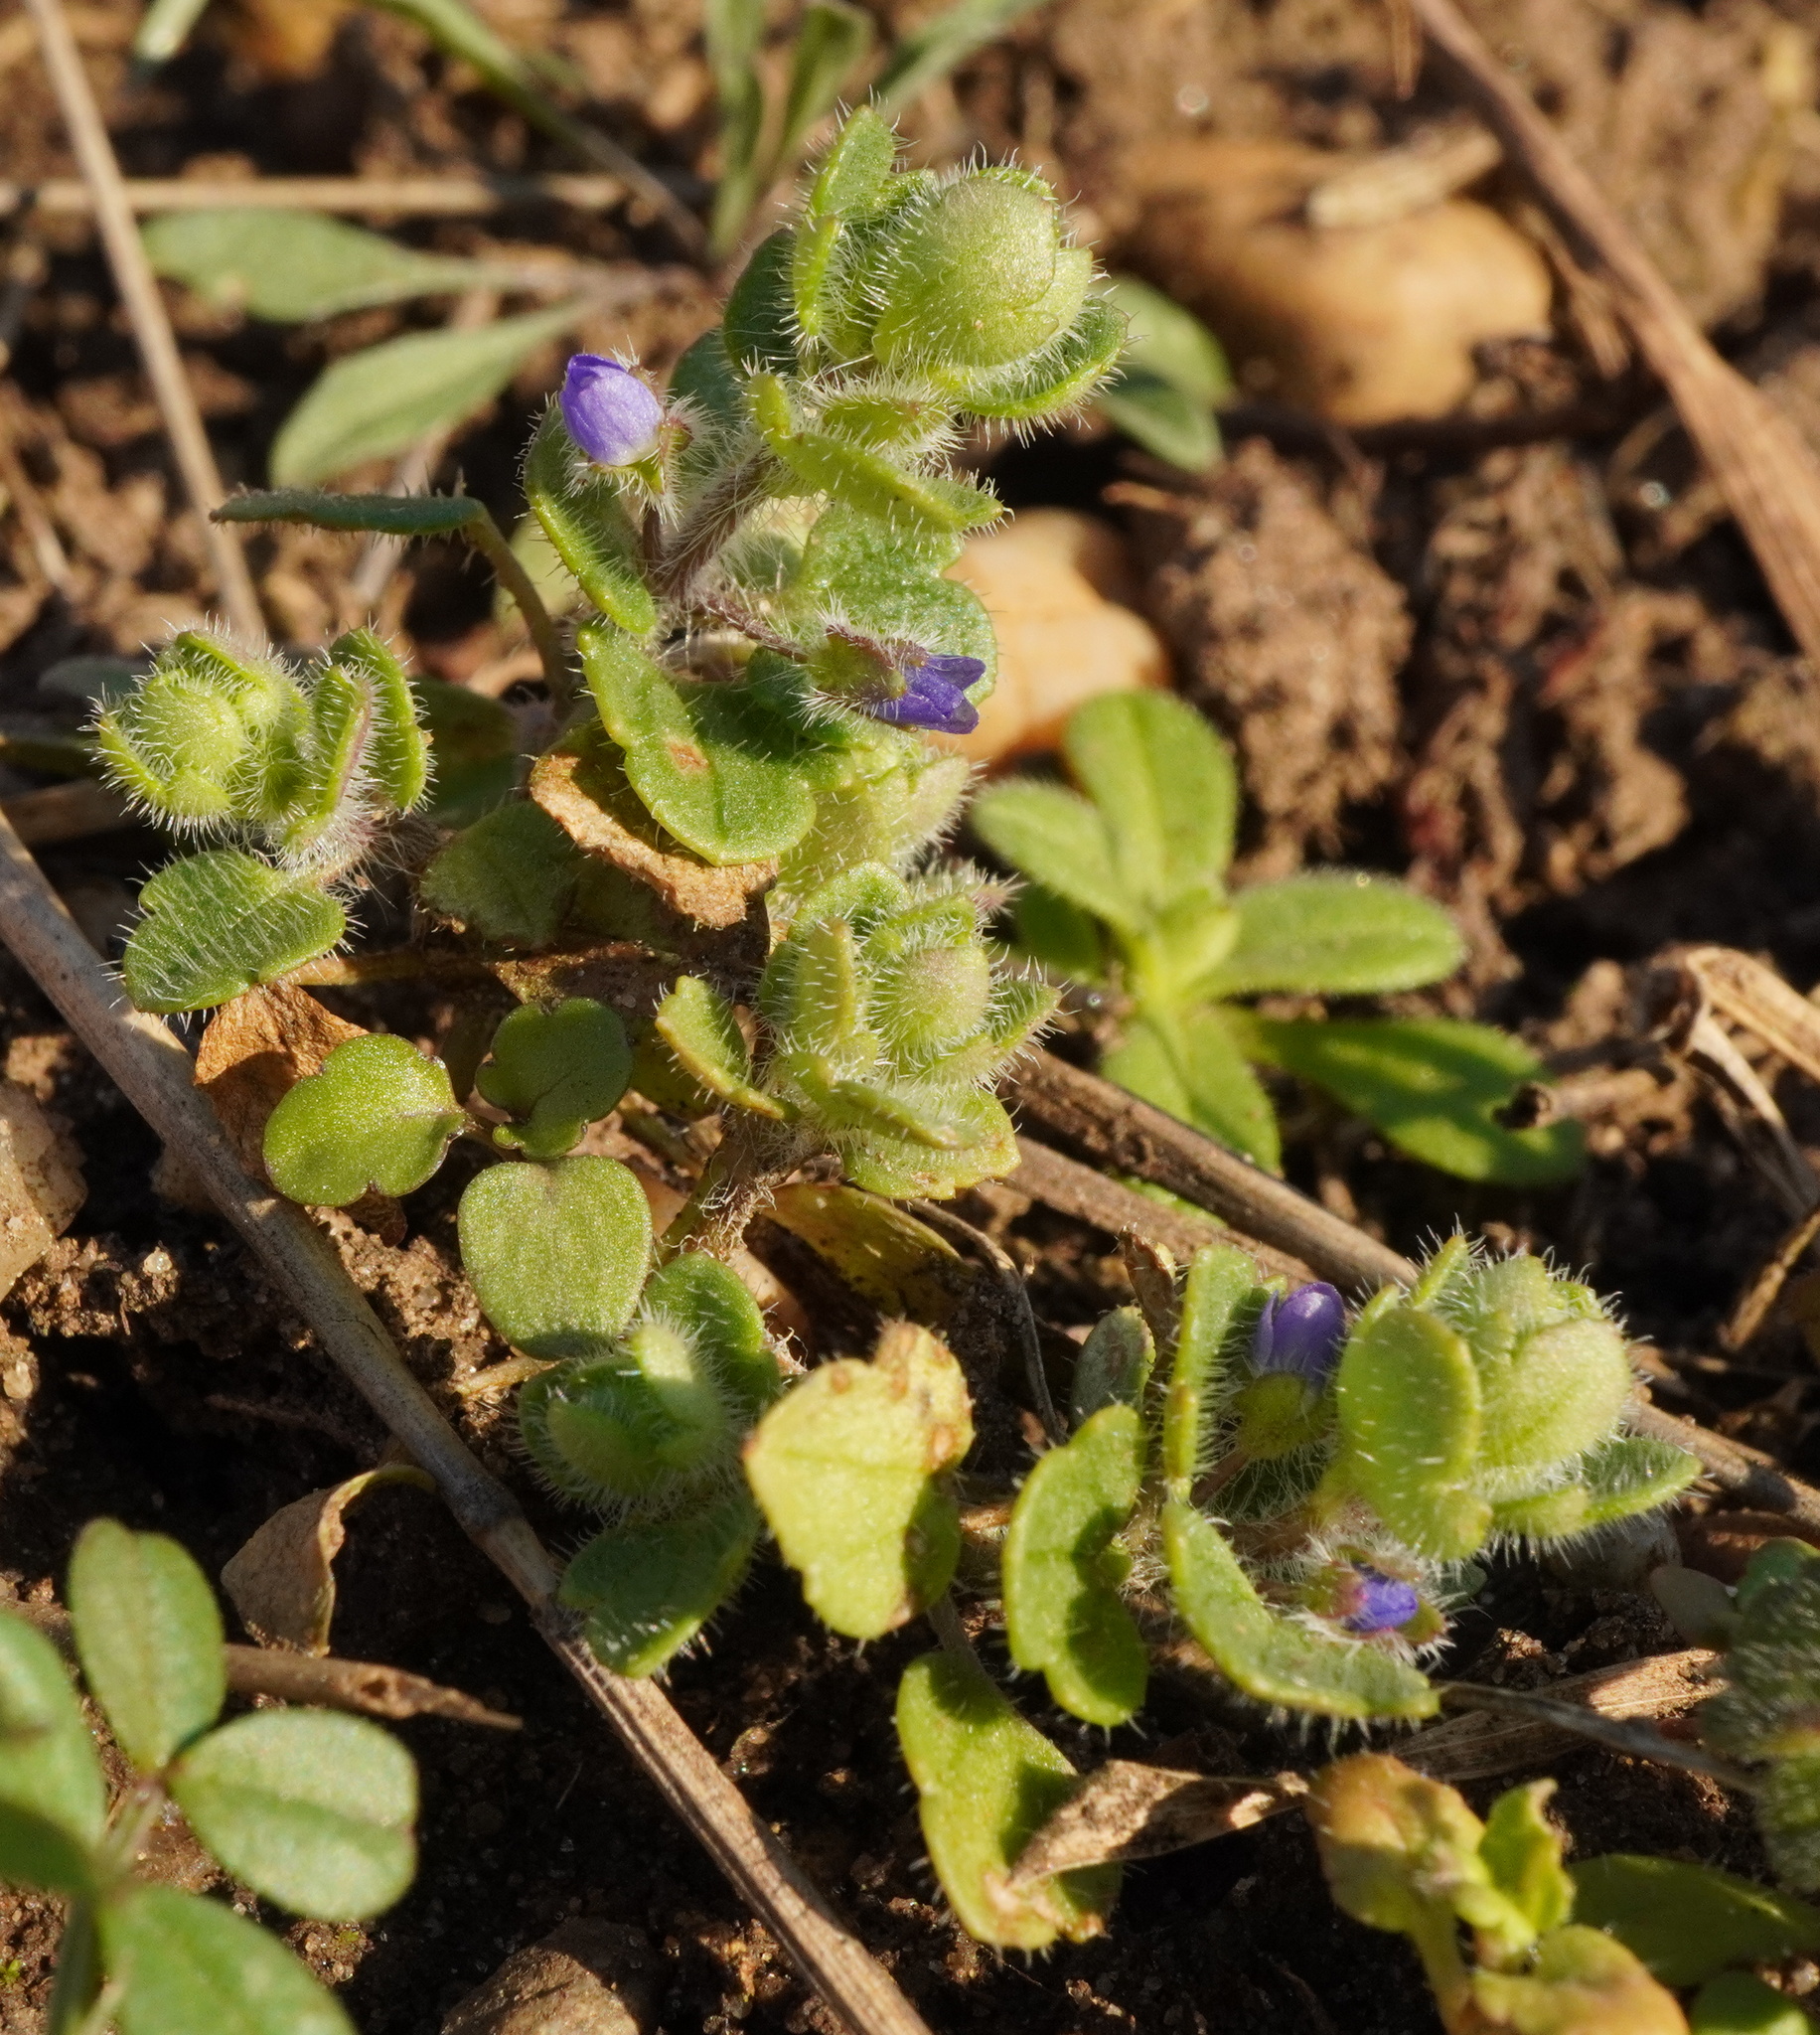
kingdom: Plantae
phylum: Tracheophyta
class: Magnoliopsida
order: Lamiales
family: Plantaginaceae
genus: Veronica
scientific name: Veronica triloba
